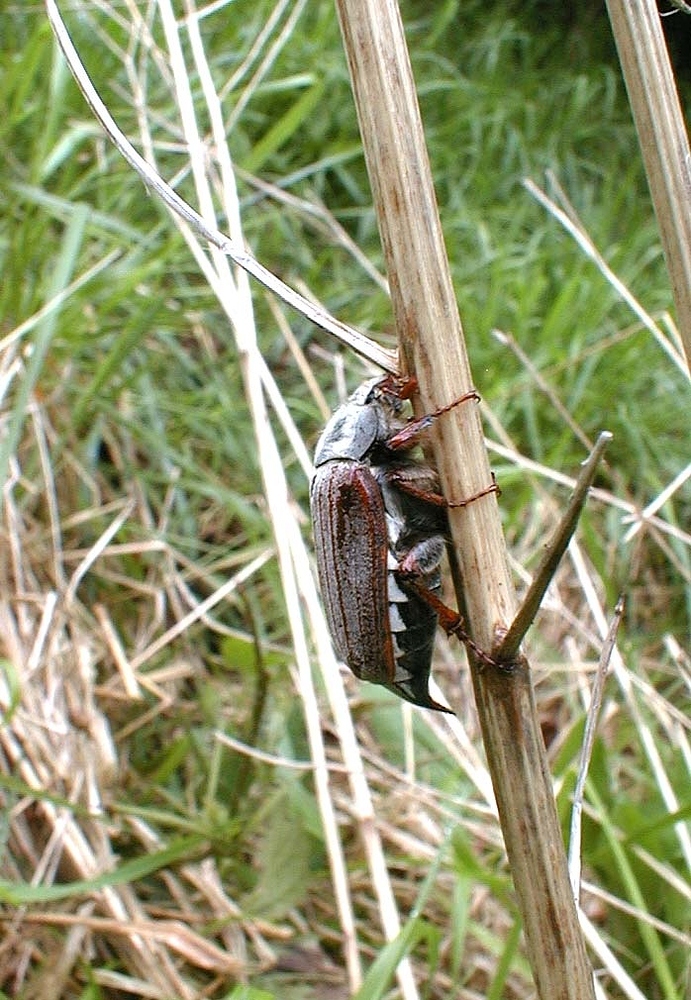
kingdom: Animalia
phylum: Arthropoda
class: Insecta
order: Coleoptera
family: Scarabaeidae
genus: Melolontha
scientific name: Melolontha melolontha
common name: Cockchafer maybeetle
